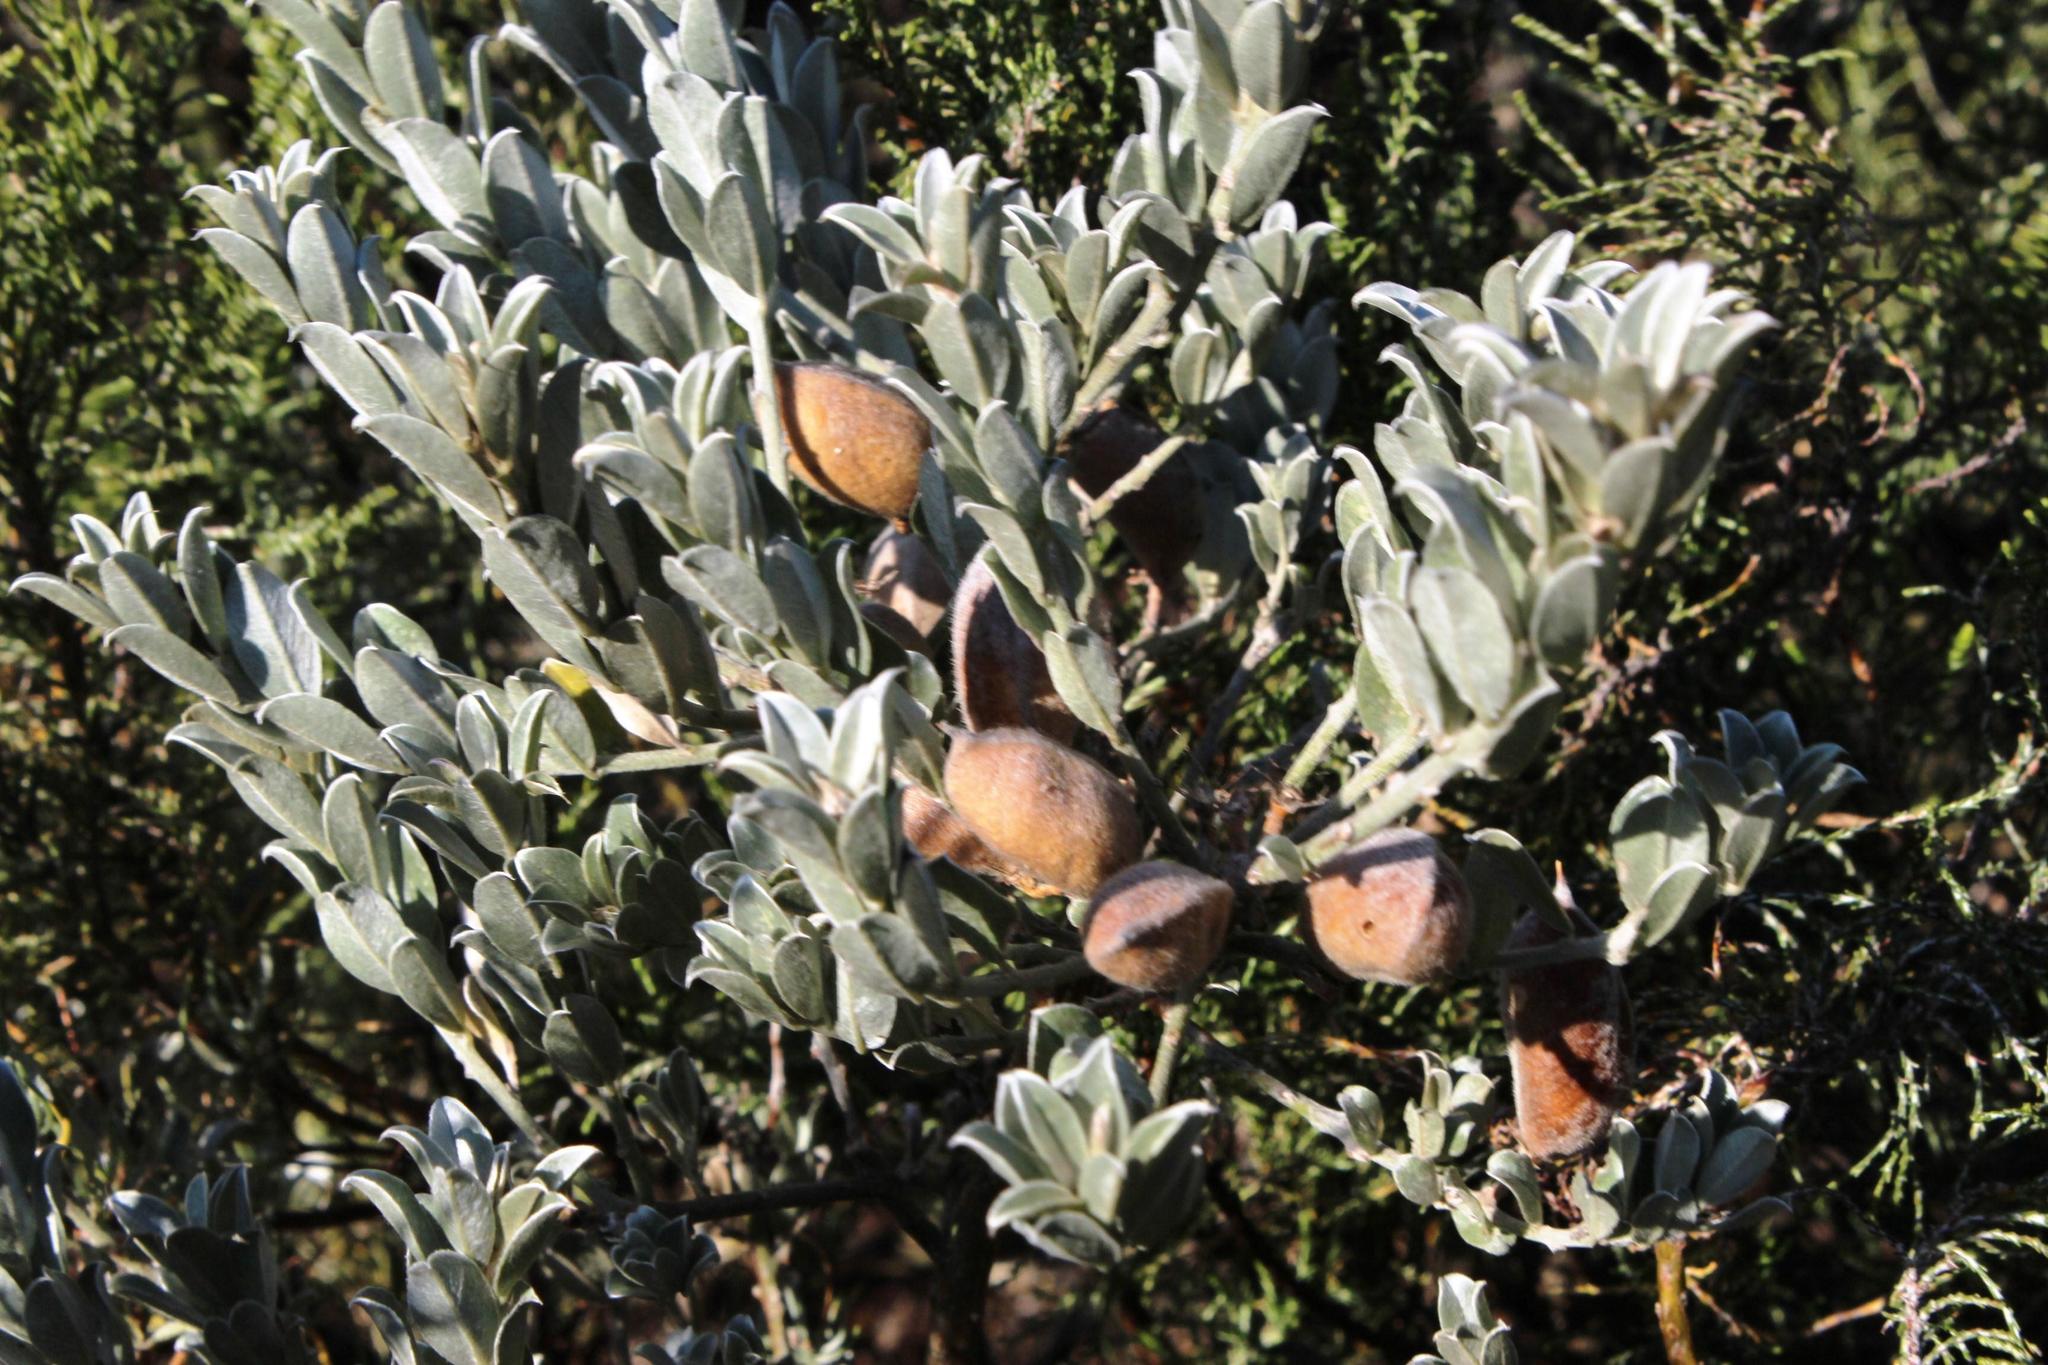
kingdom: Plantae
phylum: Tracheophyta
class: Magnoliopsida
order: Fabales
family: Fabaceae
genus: Podalyria
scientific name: Podalyria sericea
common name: Silver podalyria
